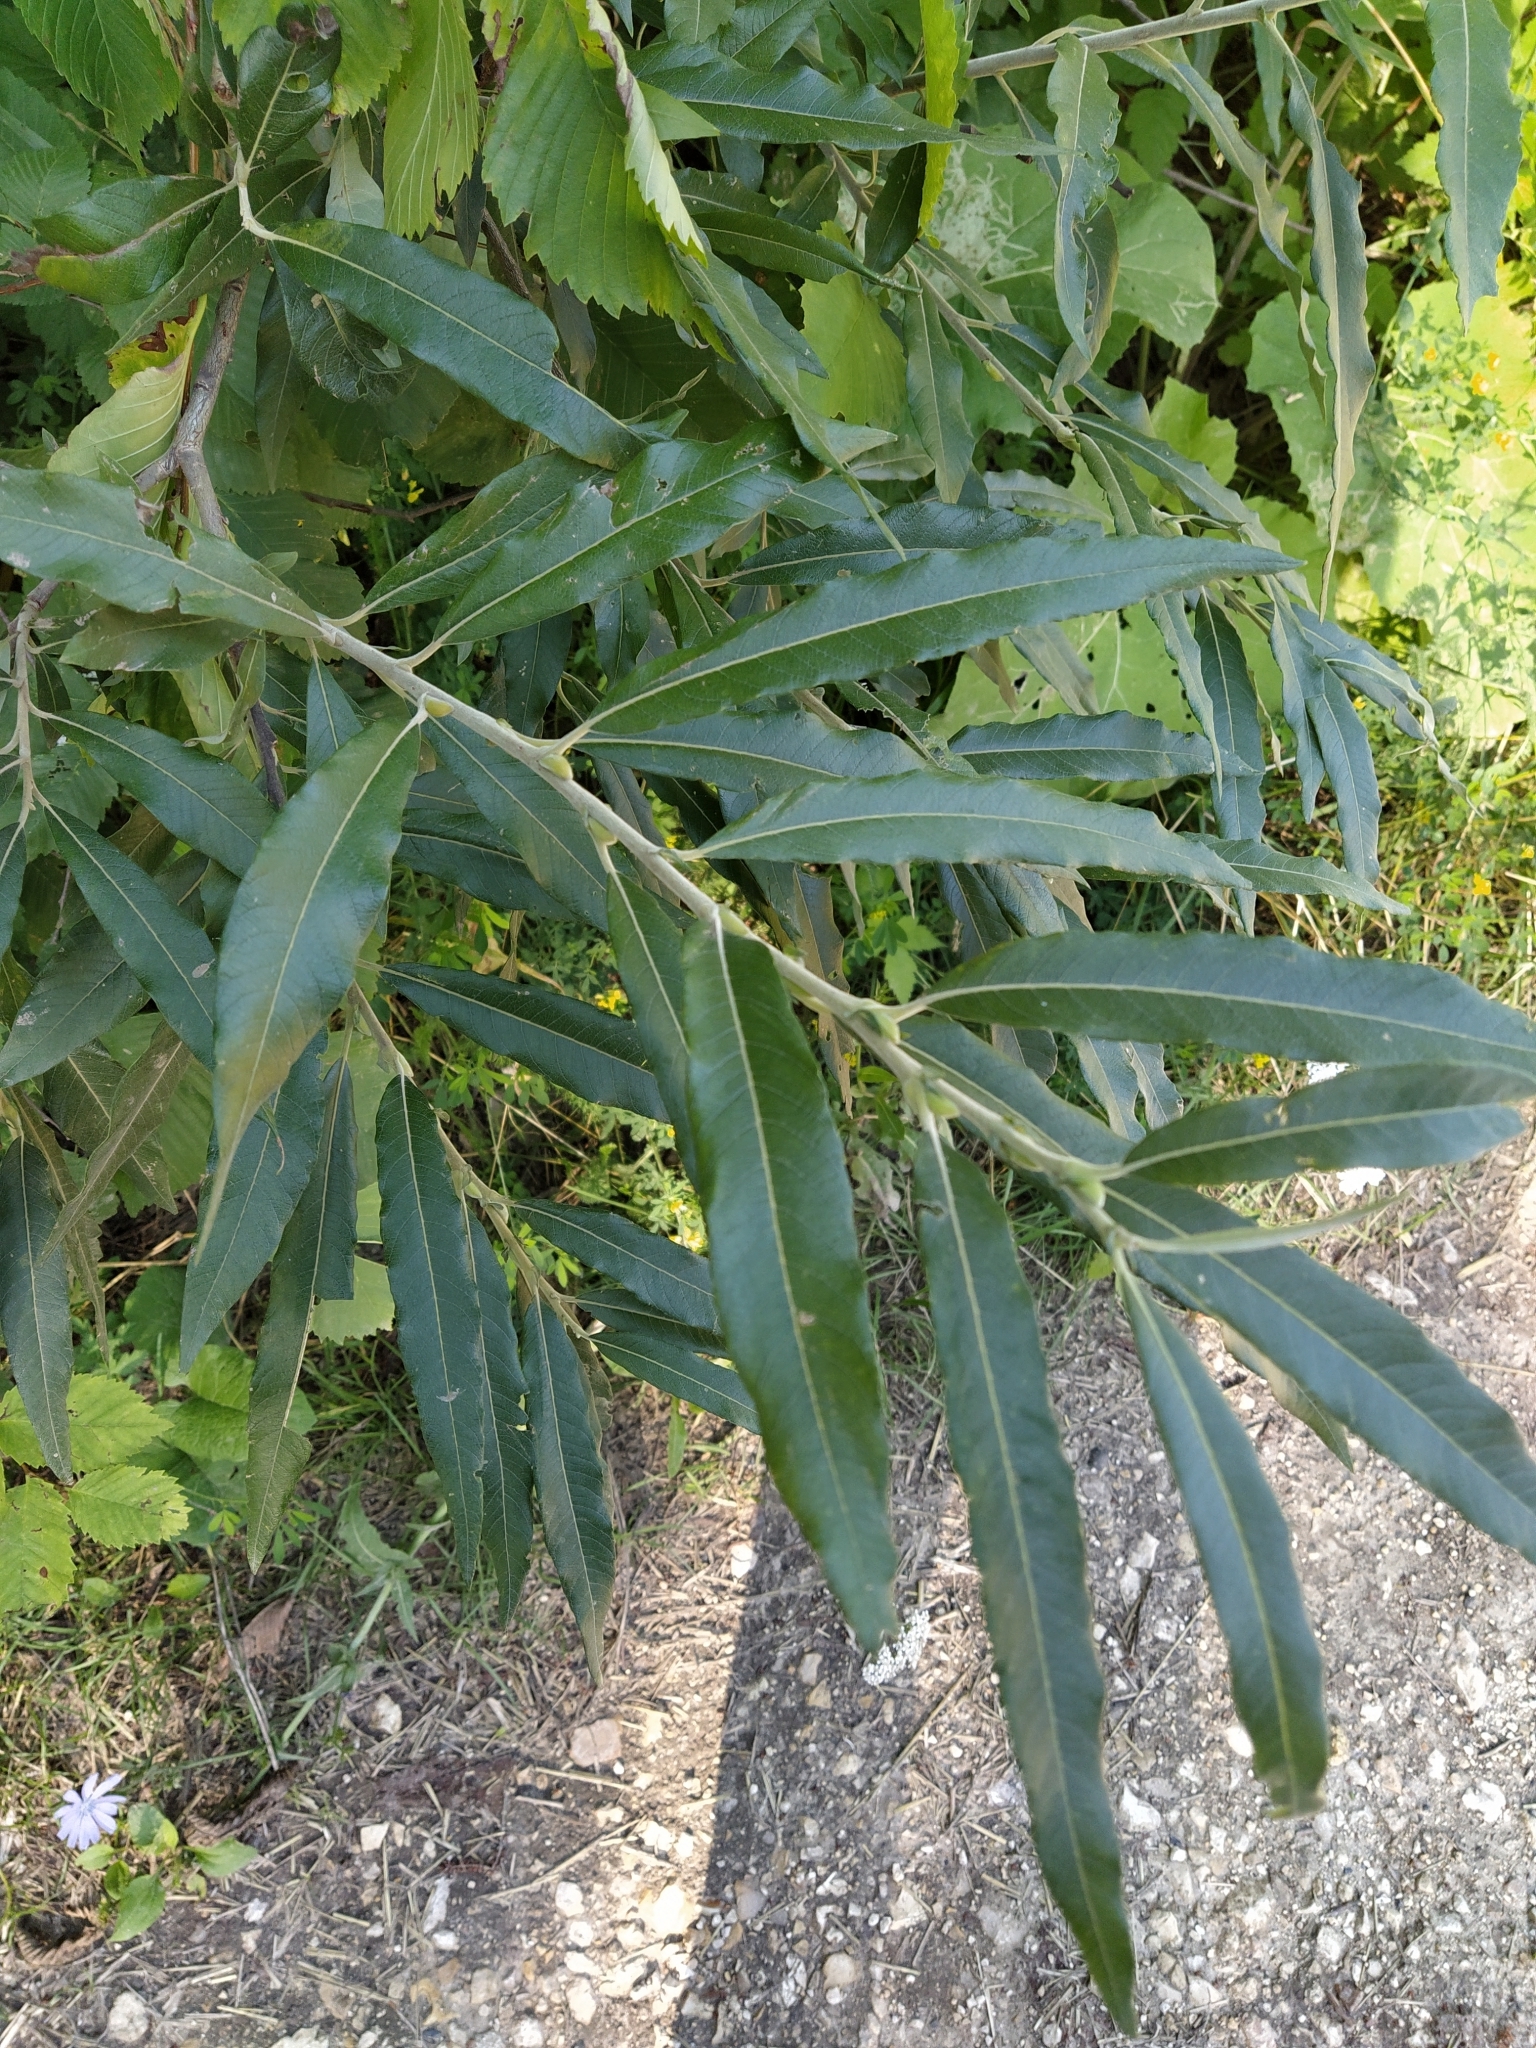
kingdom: Plantae
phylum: Tracheophyta
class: Magnoliopsida
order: Malpighiales
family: Salicaceae
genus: Salix
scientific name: Salix viminalis
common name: Osier
